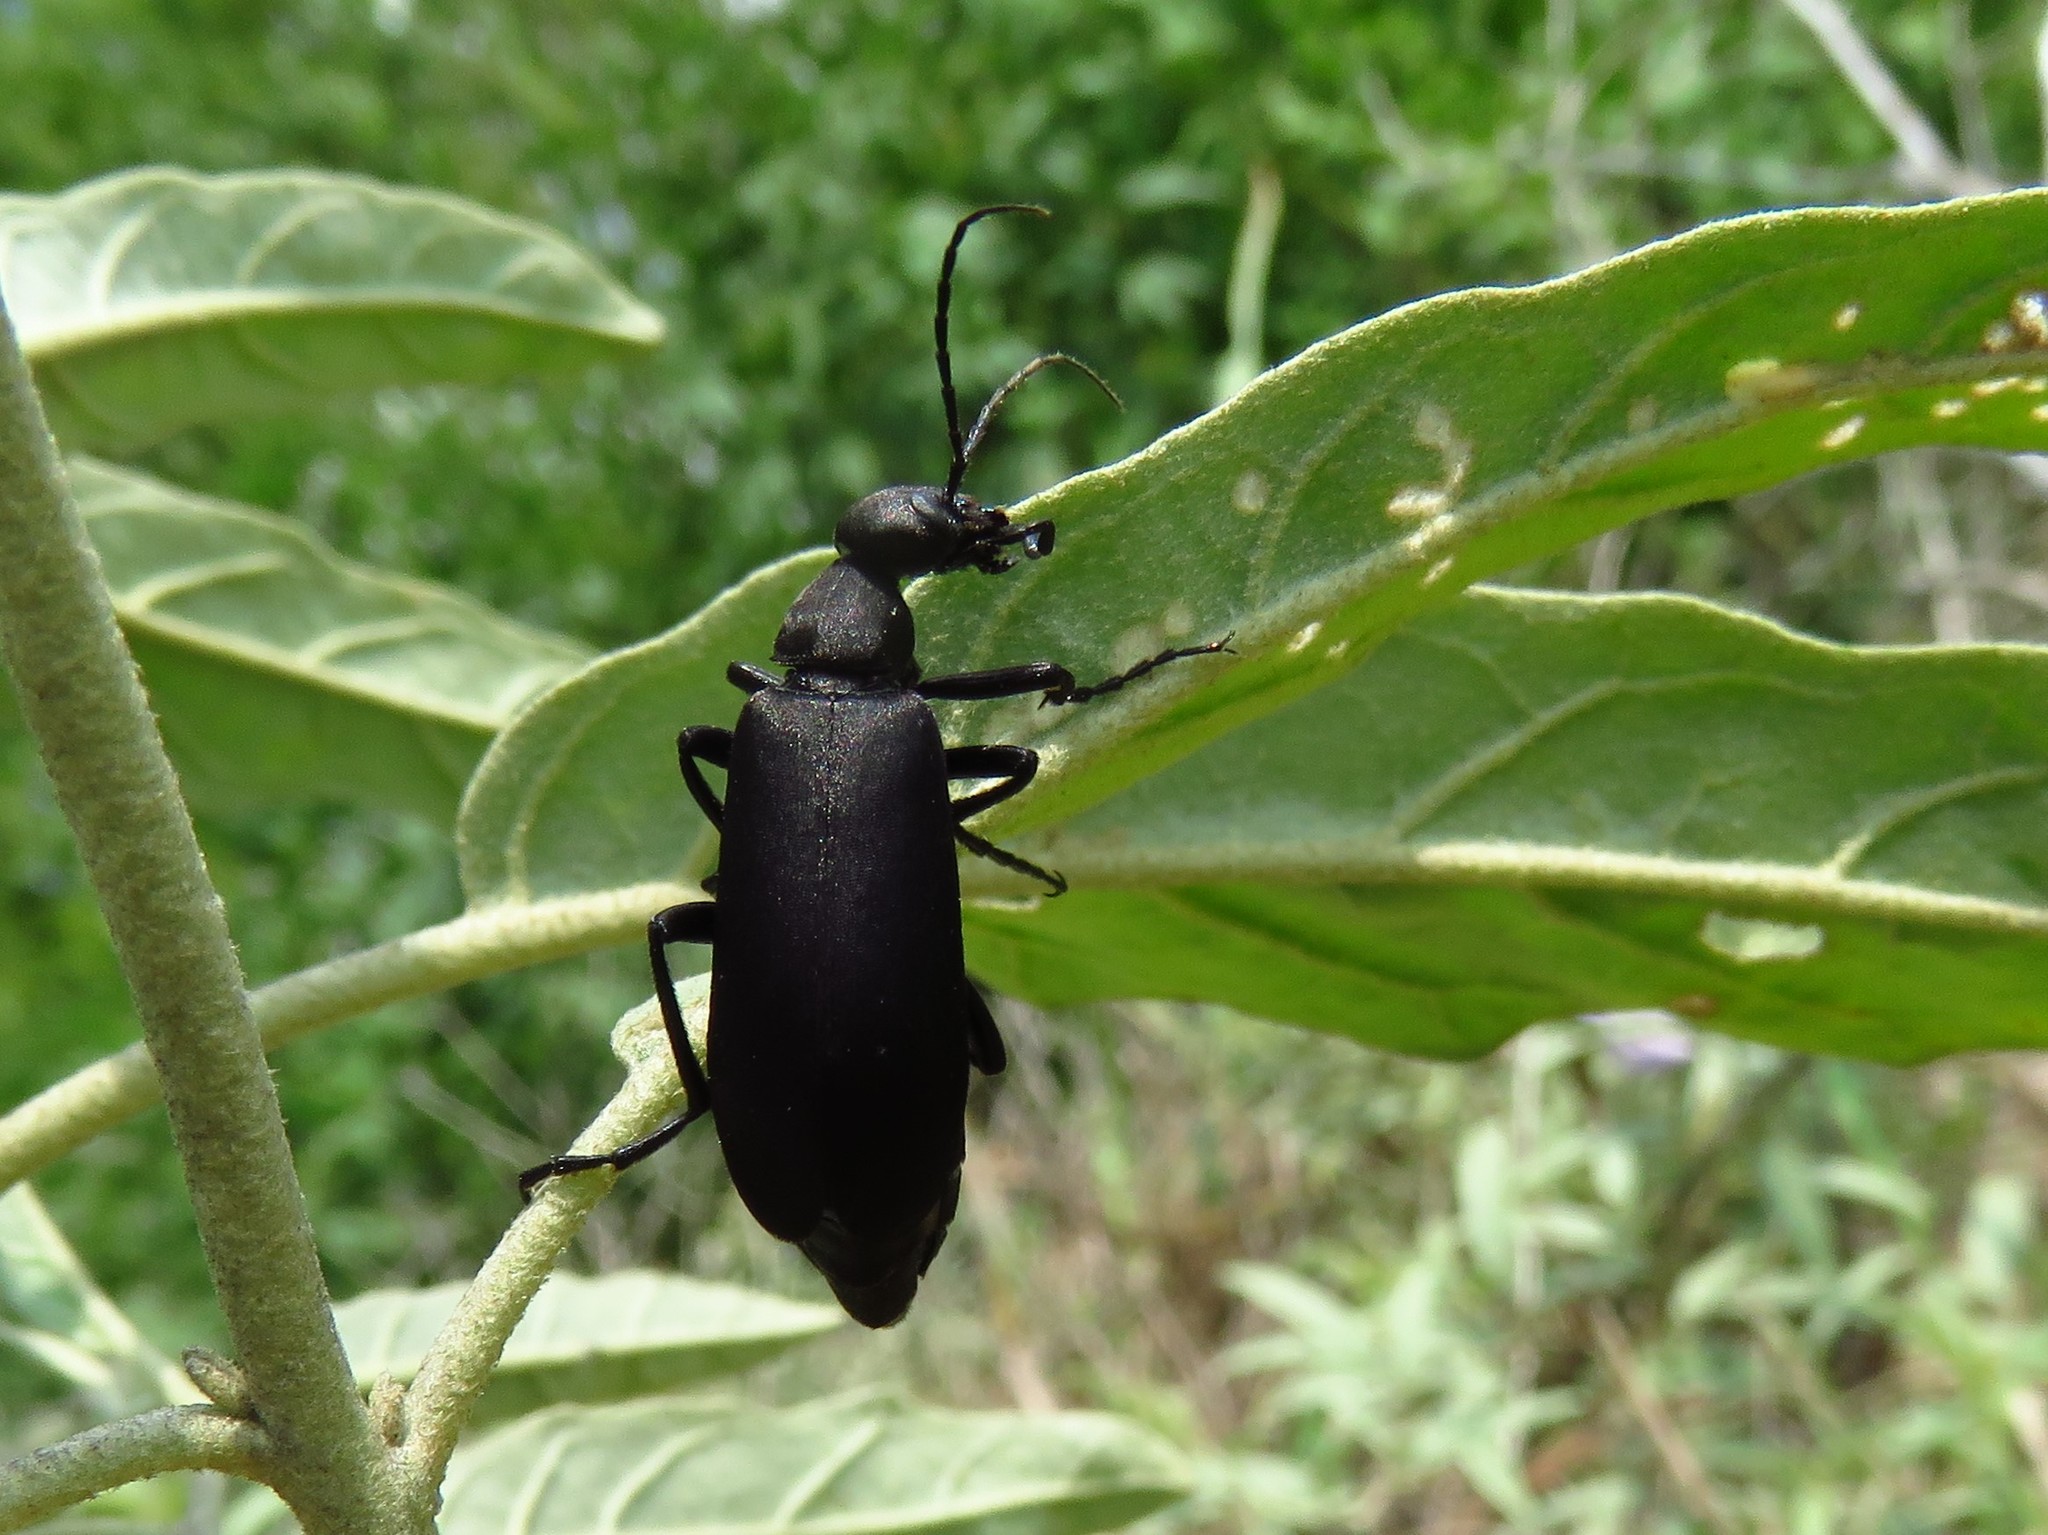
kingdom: Animalia
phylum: Arthropoda
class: Insecta
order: Coleoptera
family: Meloidae
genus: Epicauta
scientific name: Epicauta pensylvanica
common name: Black blister beetle
